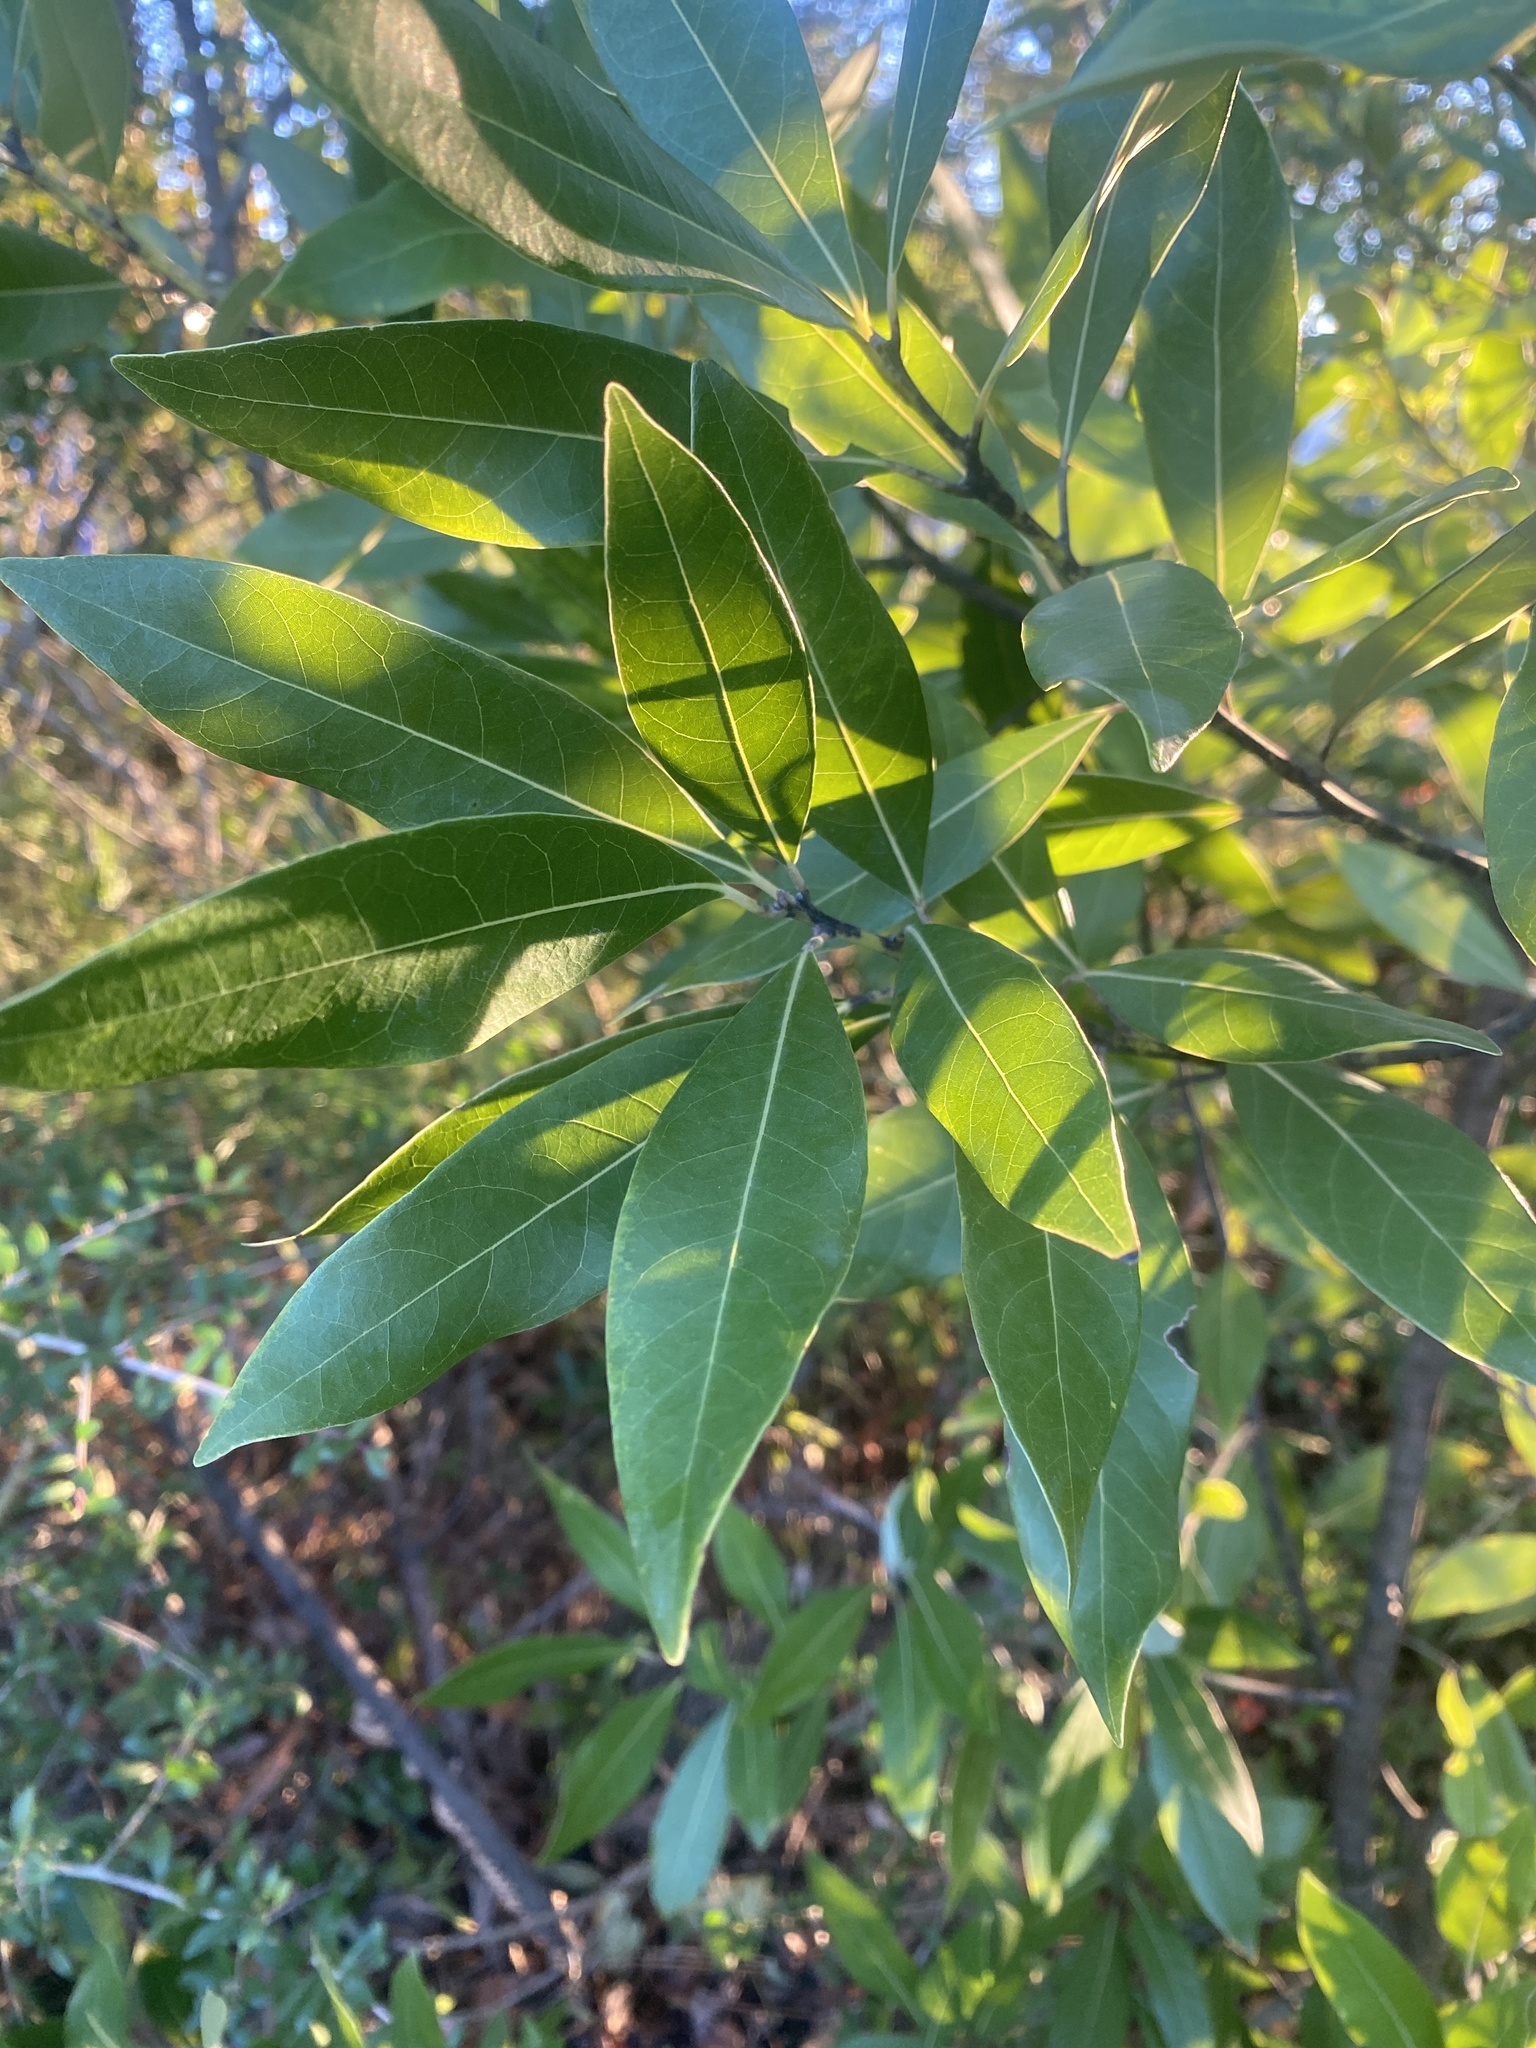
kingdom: Plantae
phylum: Tracheophyta
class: Magnoliopsida
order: Laurales
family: Lauraceae
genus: Persea
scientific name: Persea borbonia
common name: Redbay
